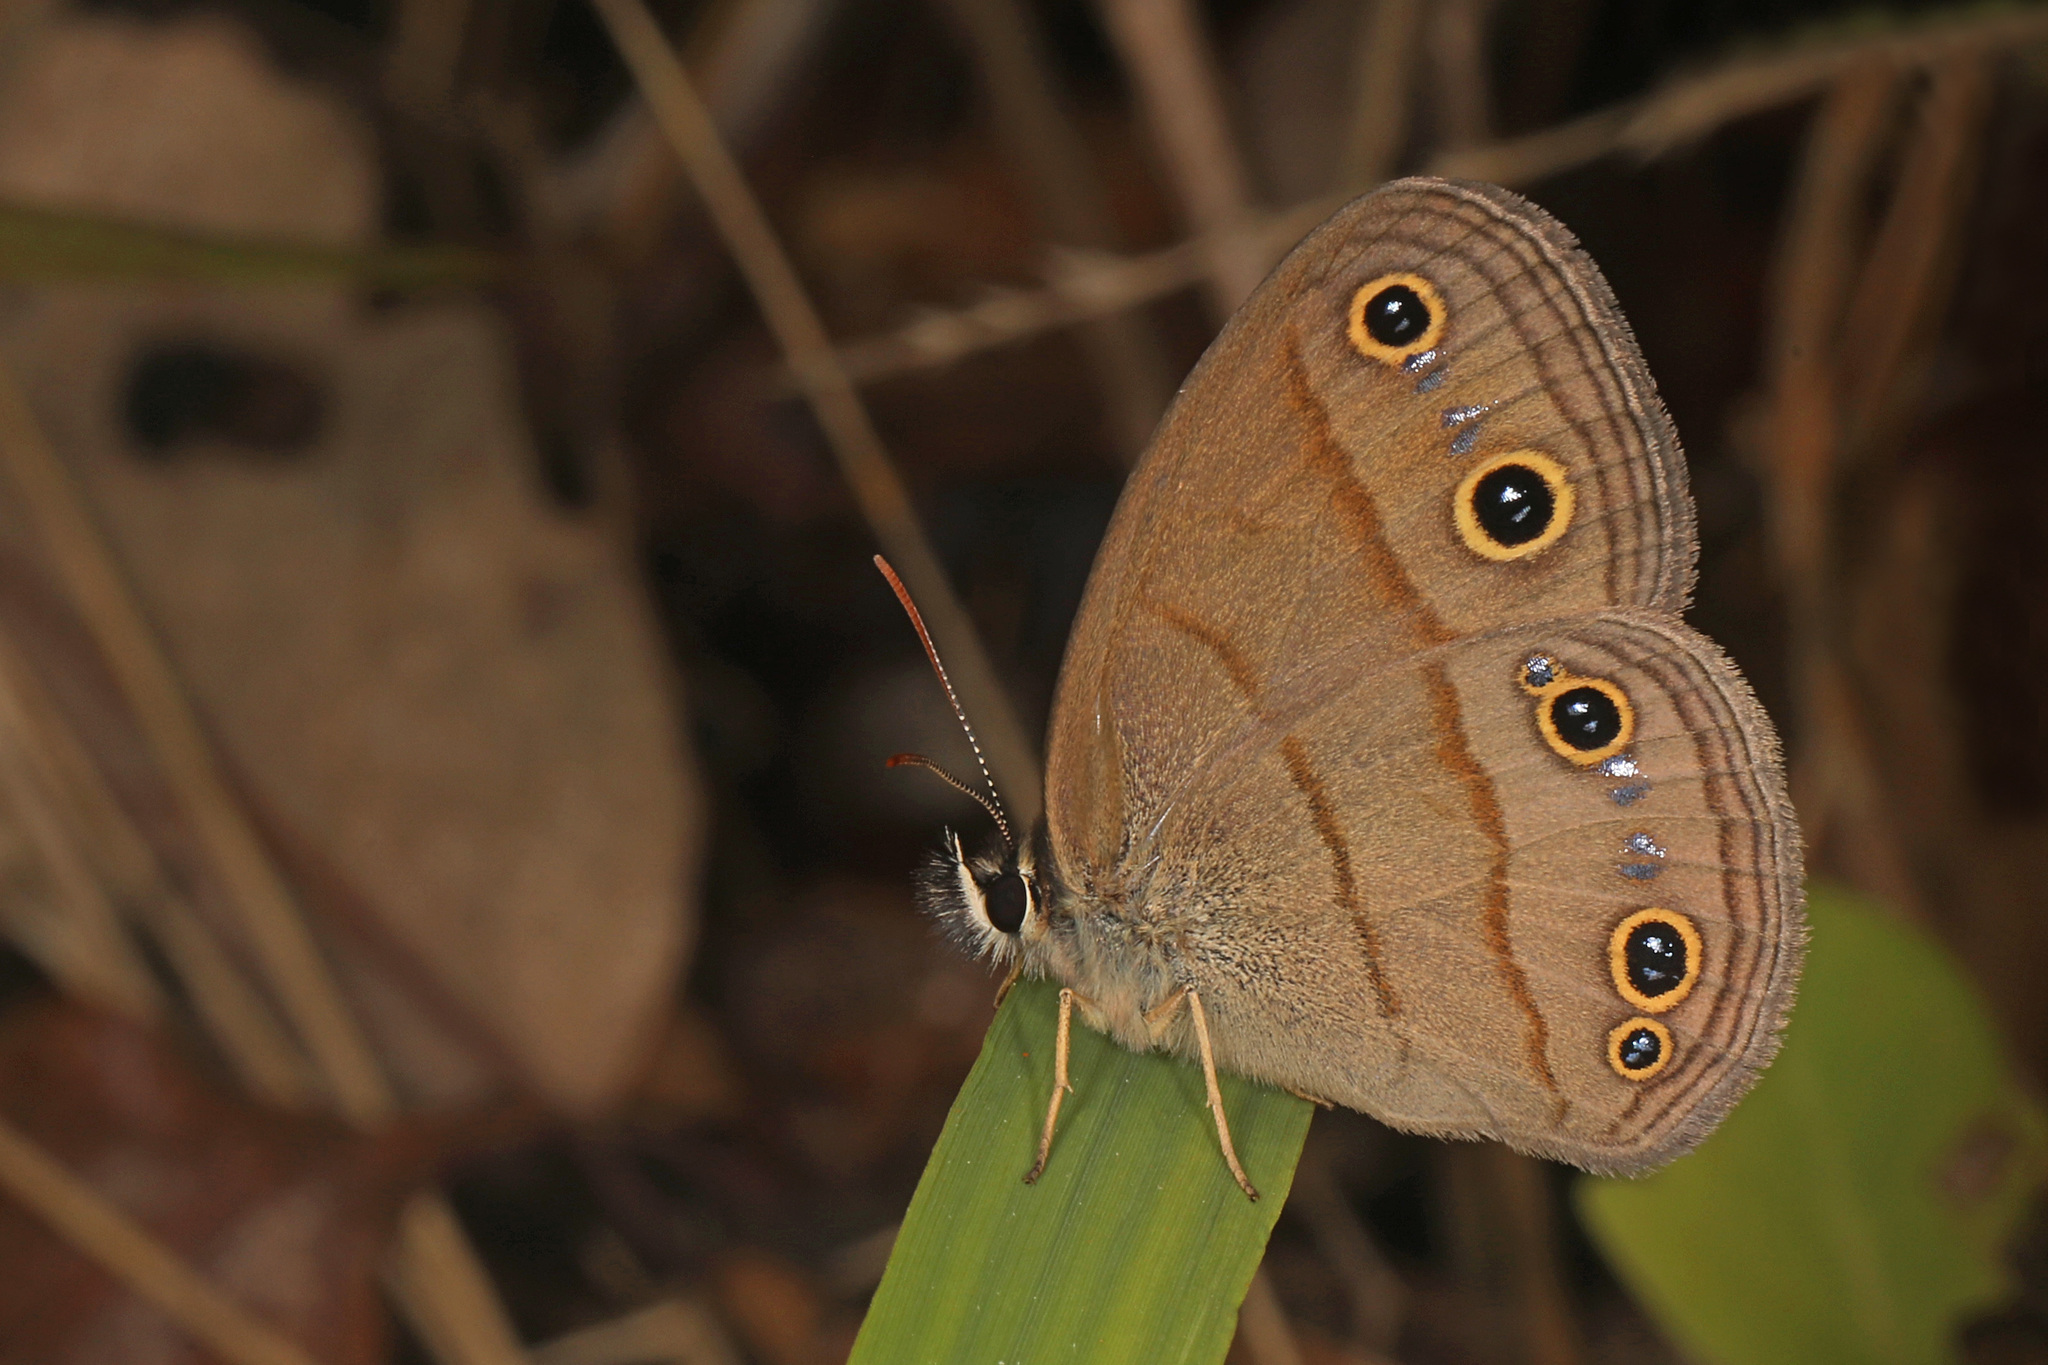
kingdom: Animalia
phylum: Arthropoda
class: Insecta
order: Lepidoptera
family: Nymphalidae
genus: Euptychia
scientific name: Euptychia cymela
